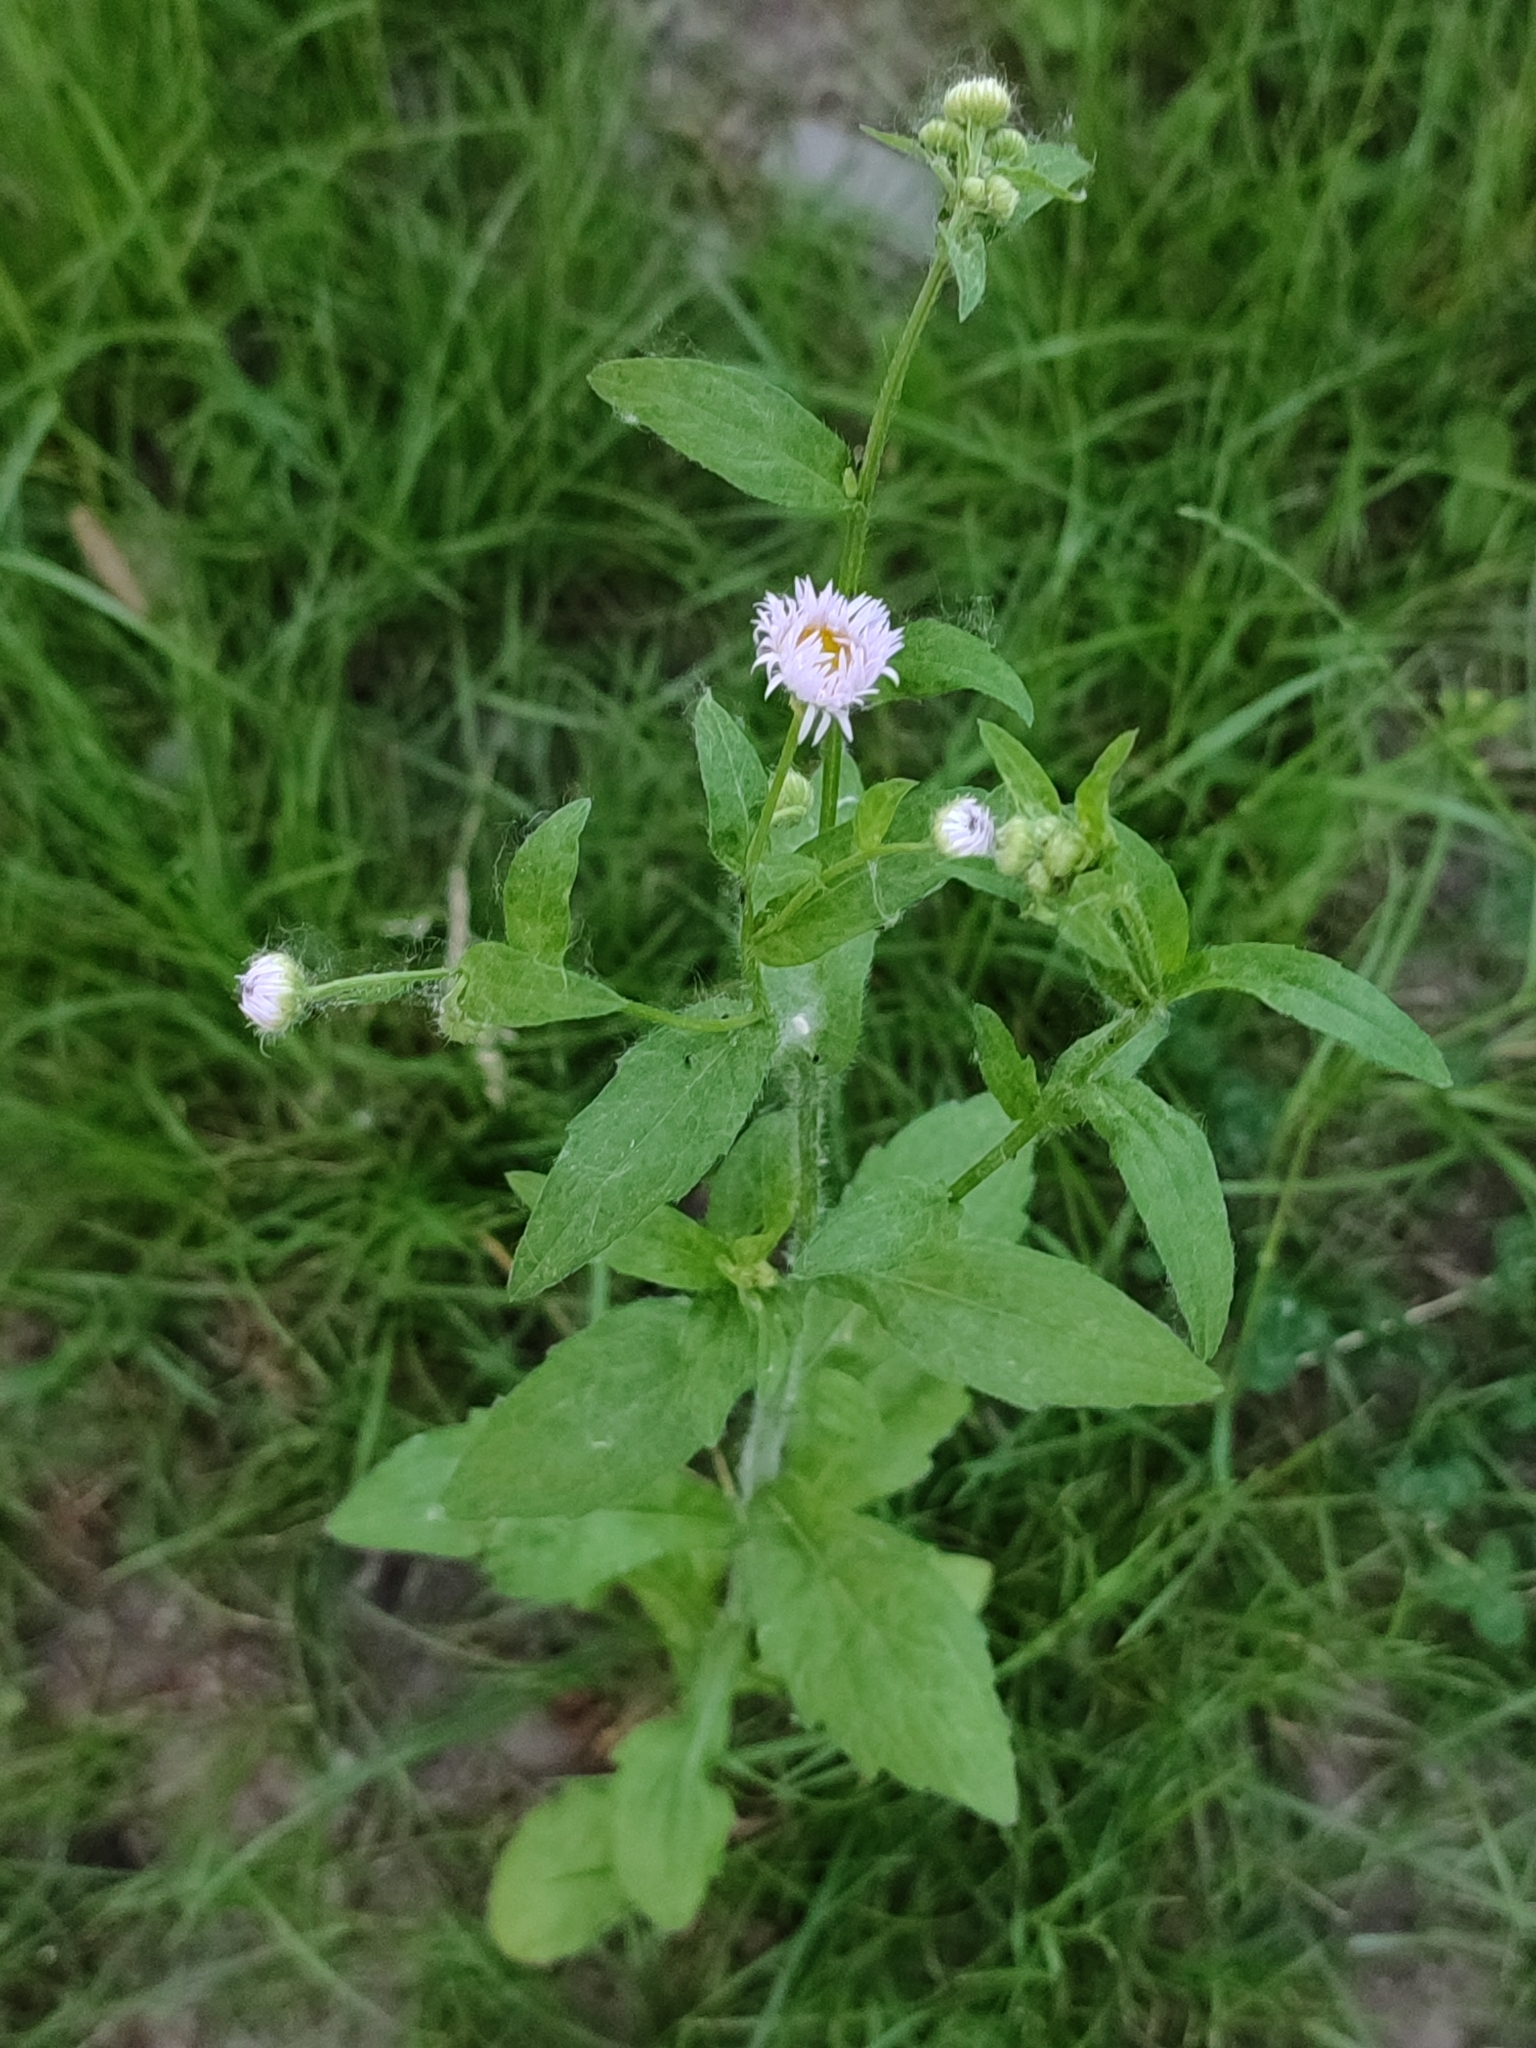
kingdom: Plantae
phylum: Tracheophyta
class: Magnoliopsida
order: Asterales
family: Asteraceae
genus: Erigeron
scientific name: Erigeron annuus
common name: Tall fleabane
